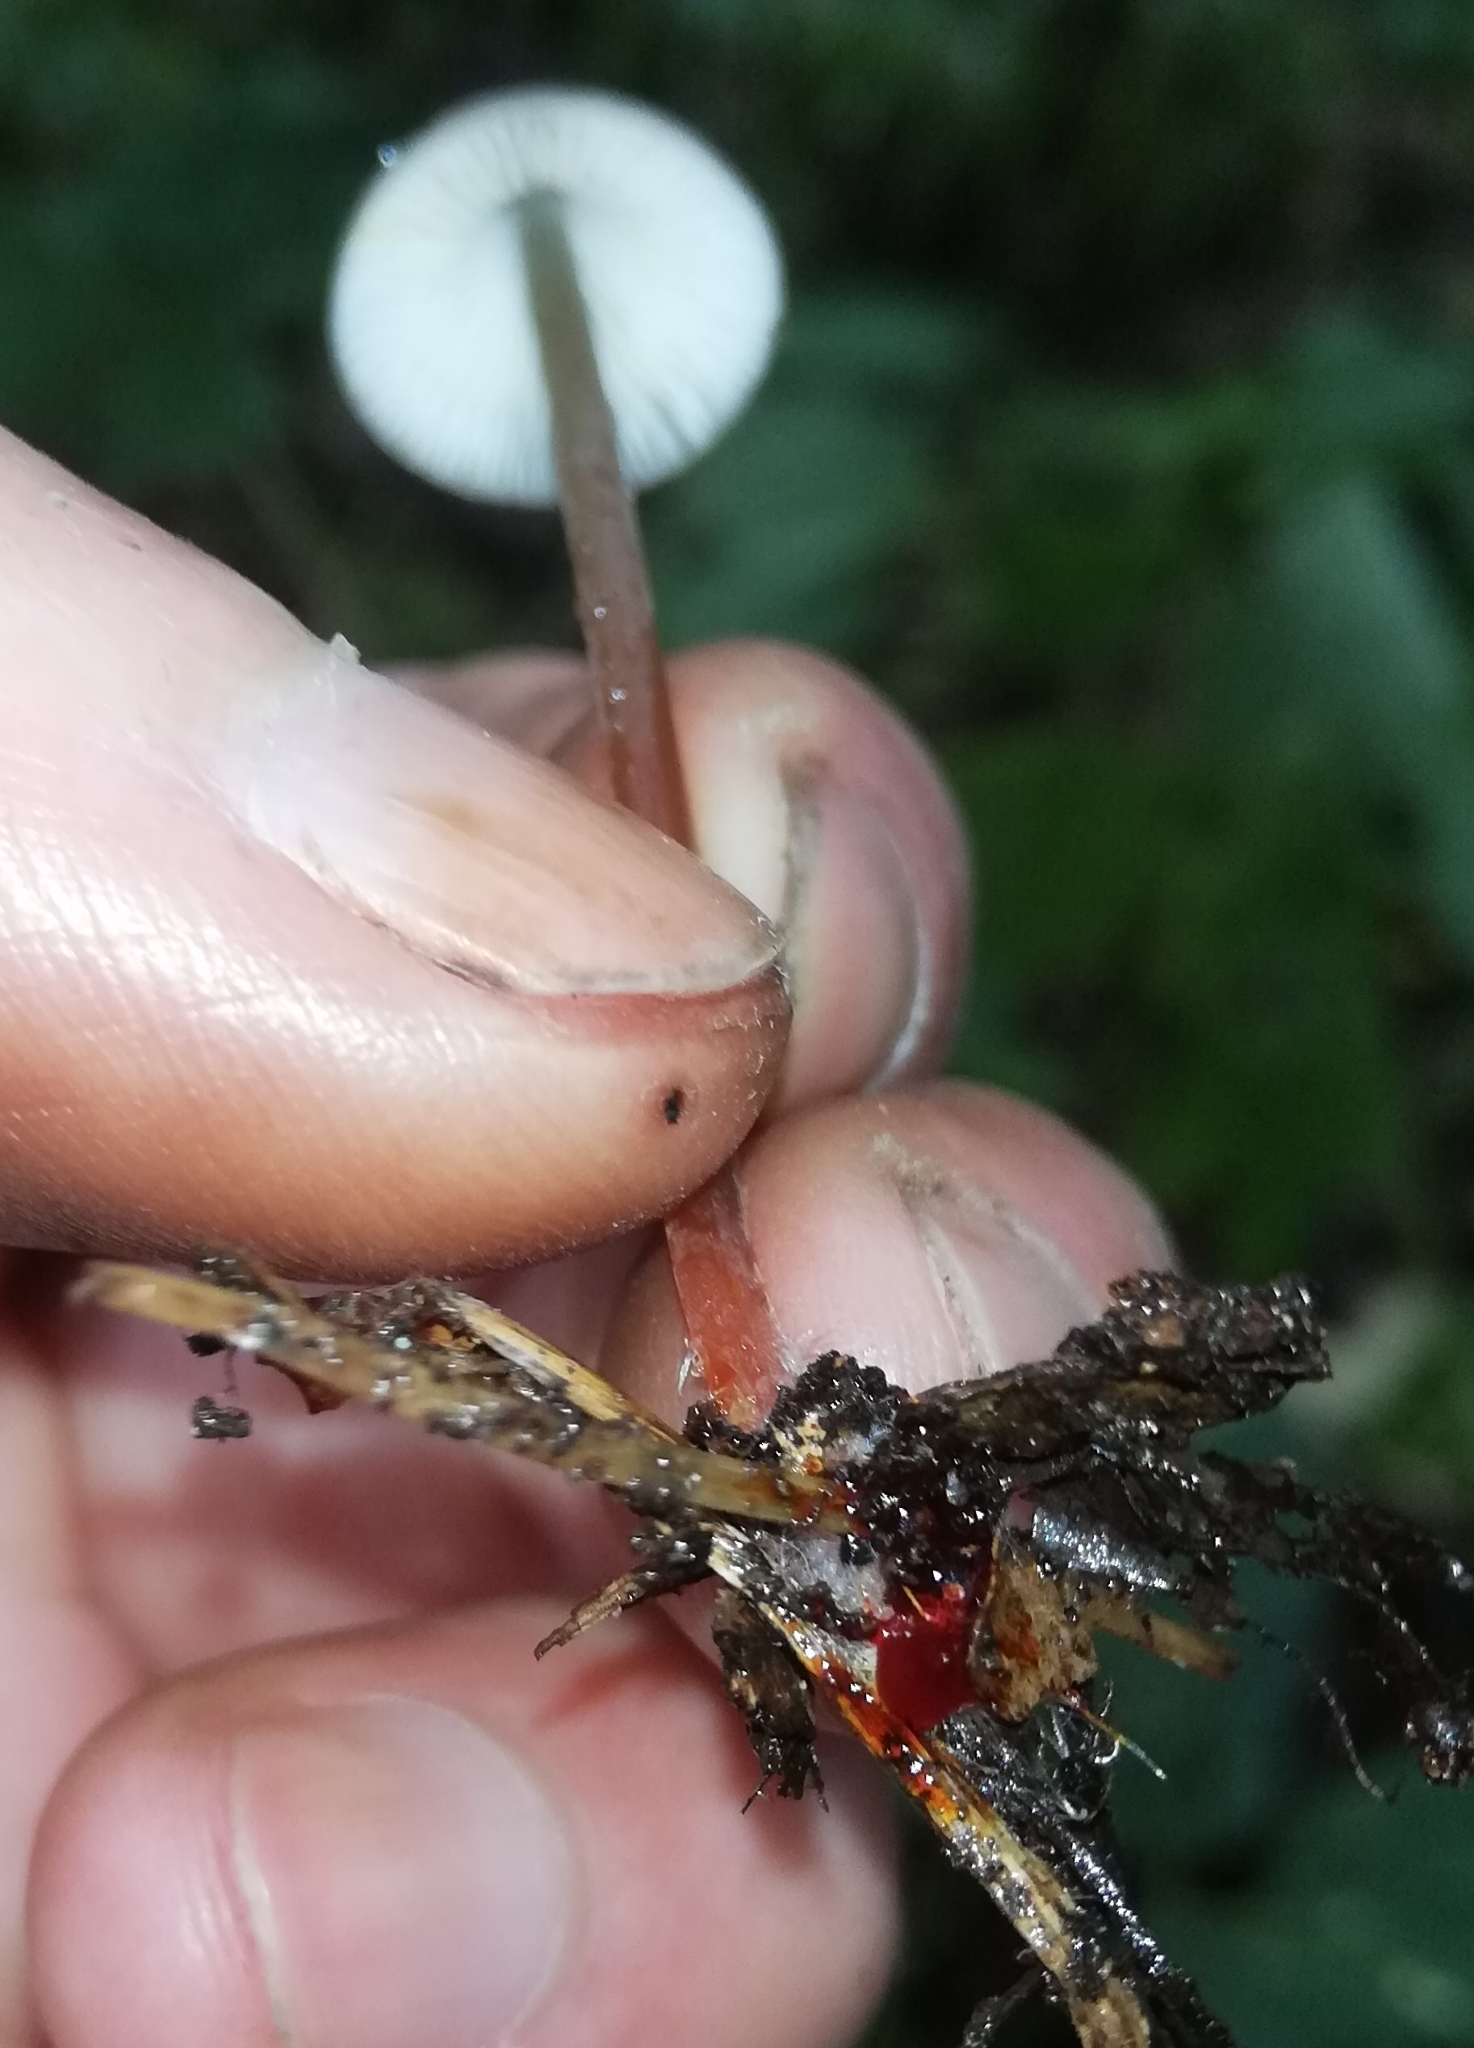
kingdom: Fungi
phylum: Basidiomycota
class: Agaricomycetes
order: Agaricales
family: Mycenaceae
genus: Mycena
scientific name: Mycena crocata
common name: Saffrondrop bonnet
